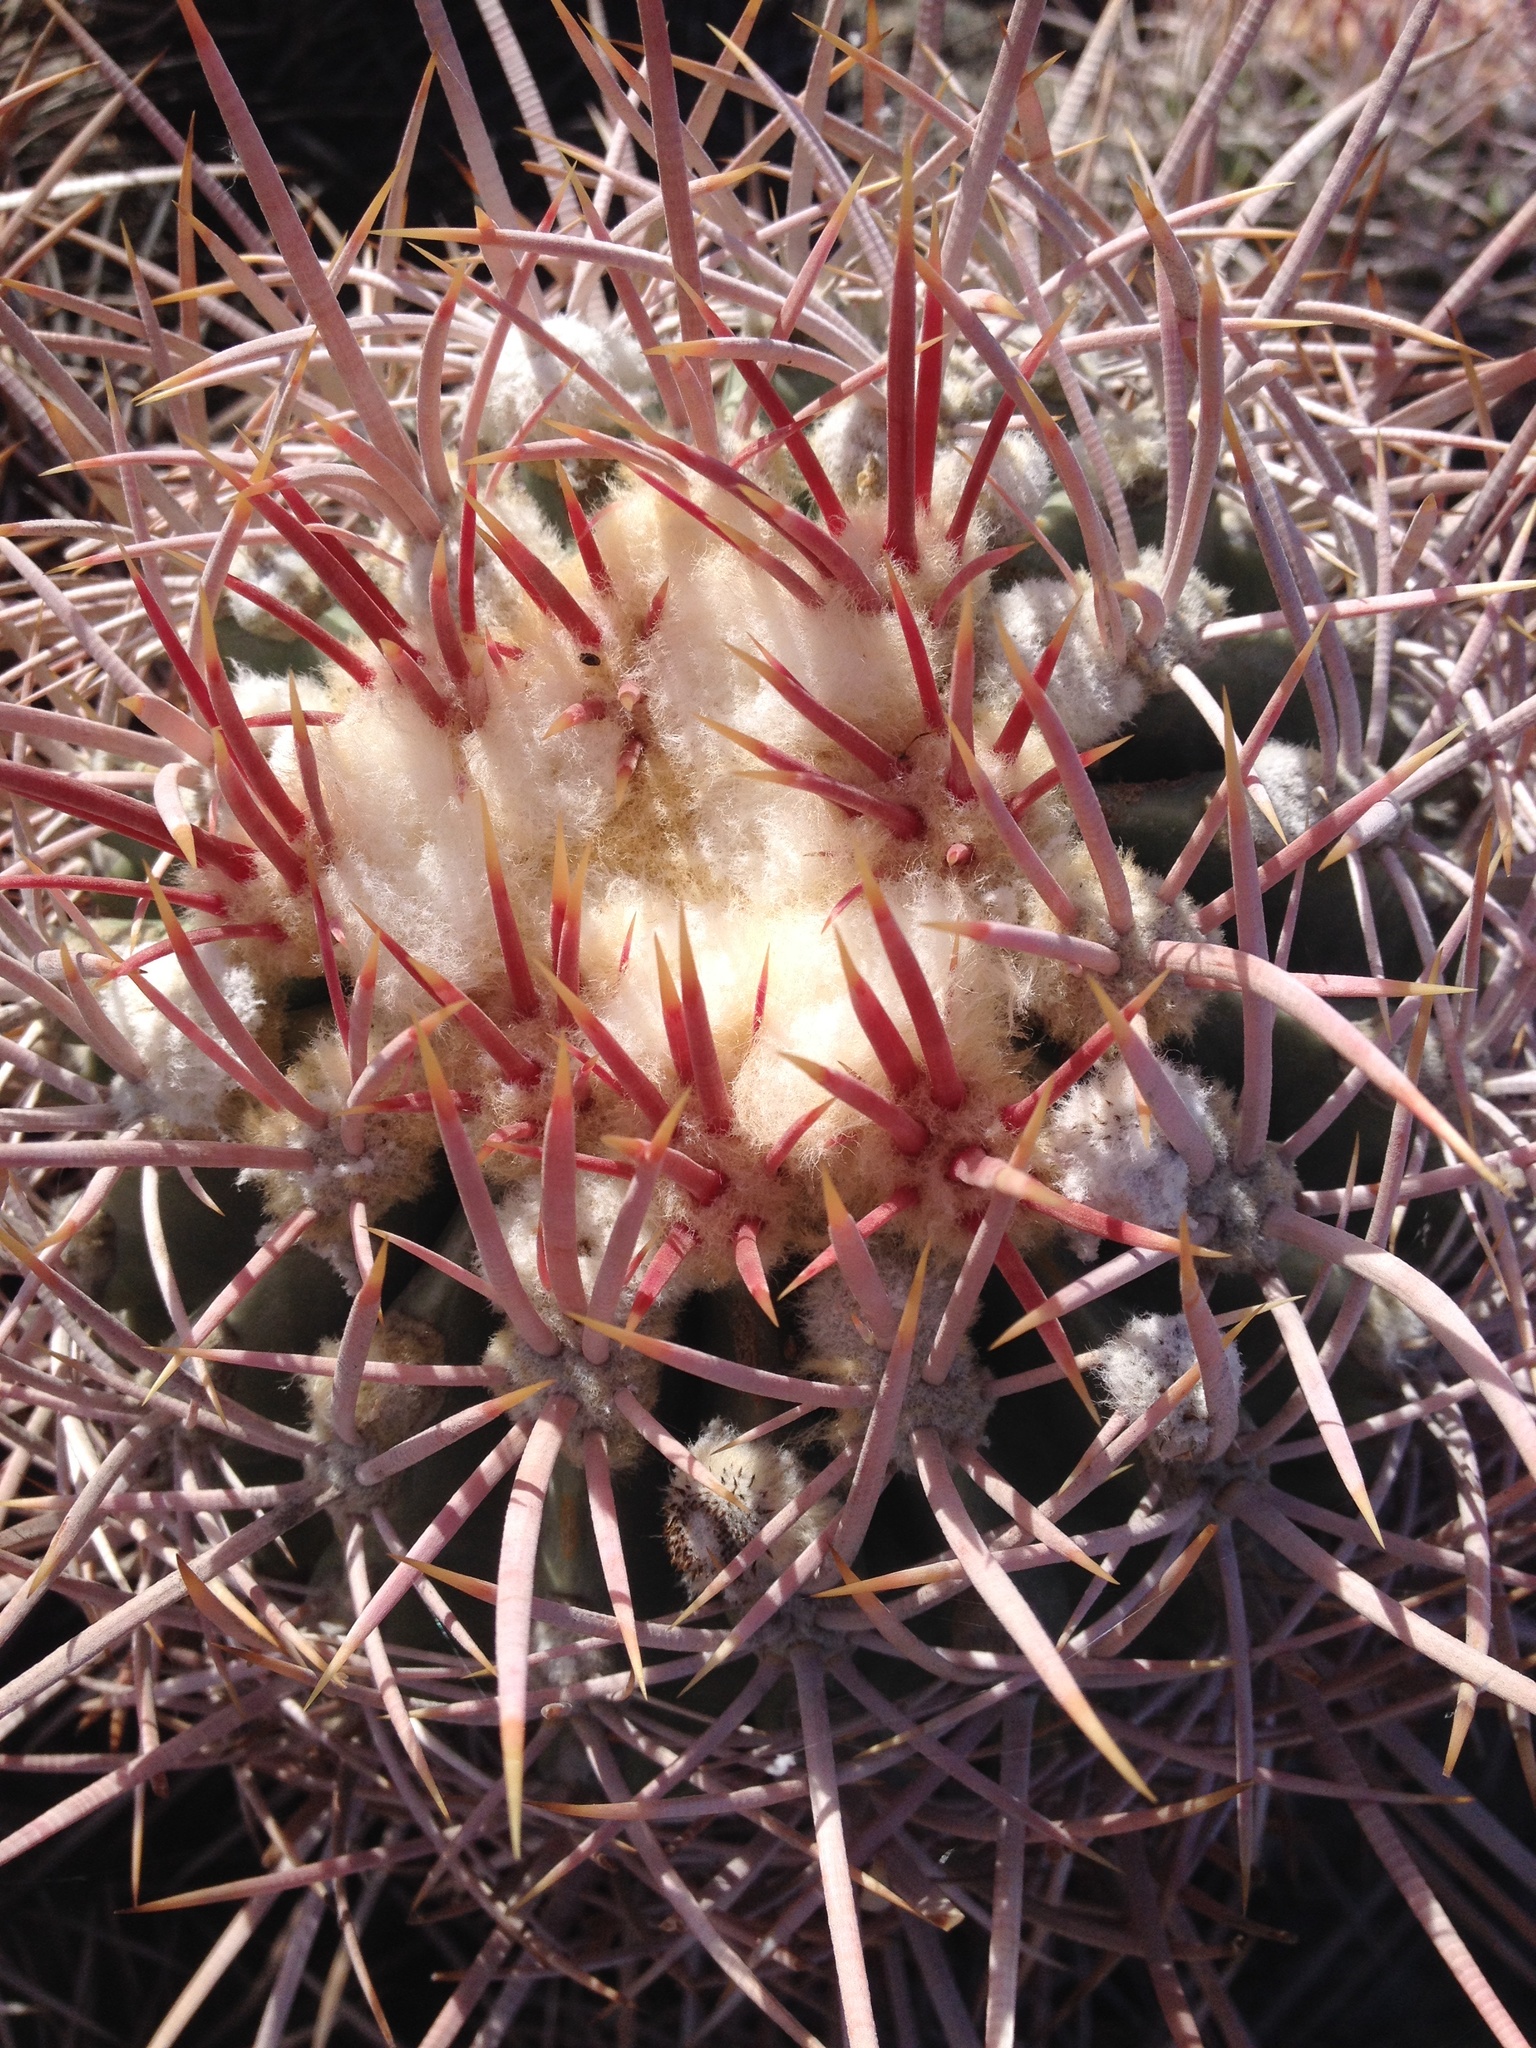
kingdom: Plantae
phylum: Tracheophyta
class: Magnoliopsida
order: Caryophyllales
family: Cactaceae
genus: Echinocactus
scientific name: Echinocactus polycephalus
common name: Cottontop cactus
